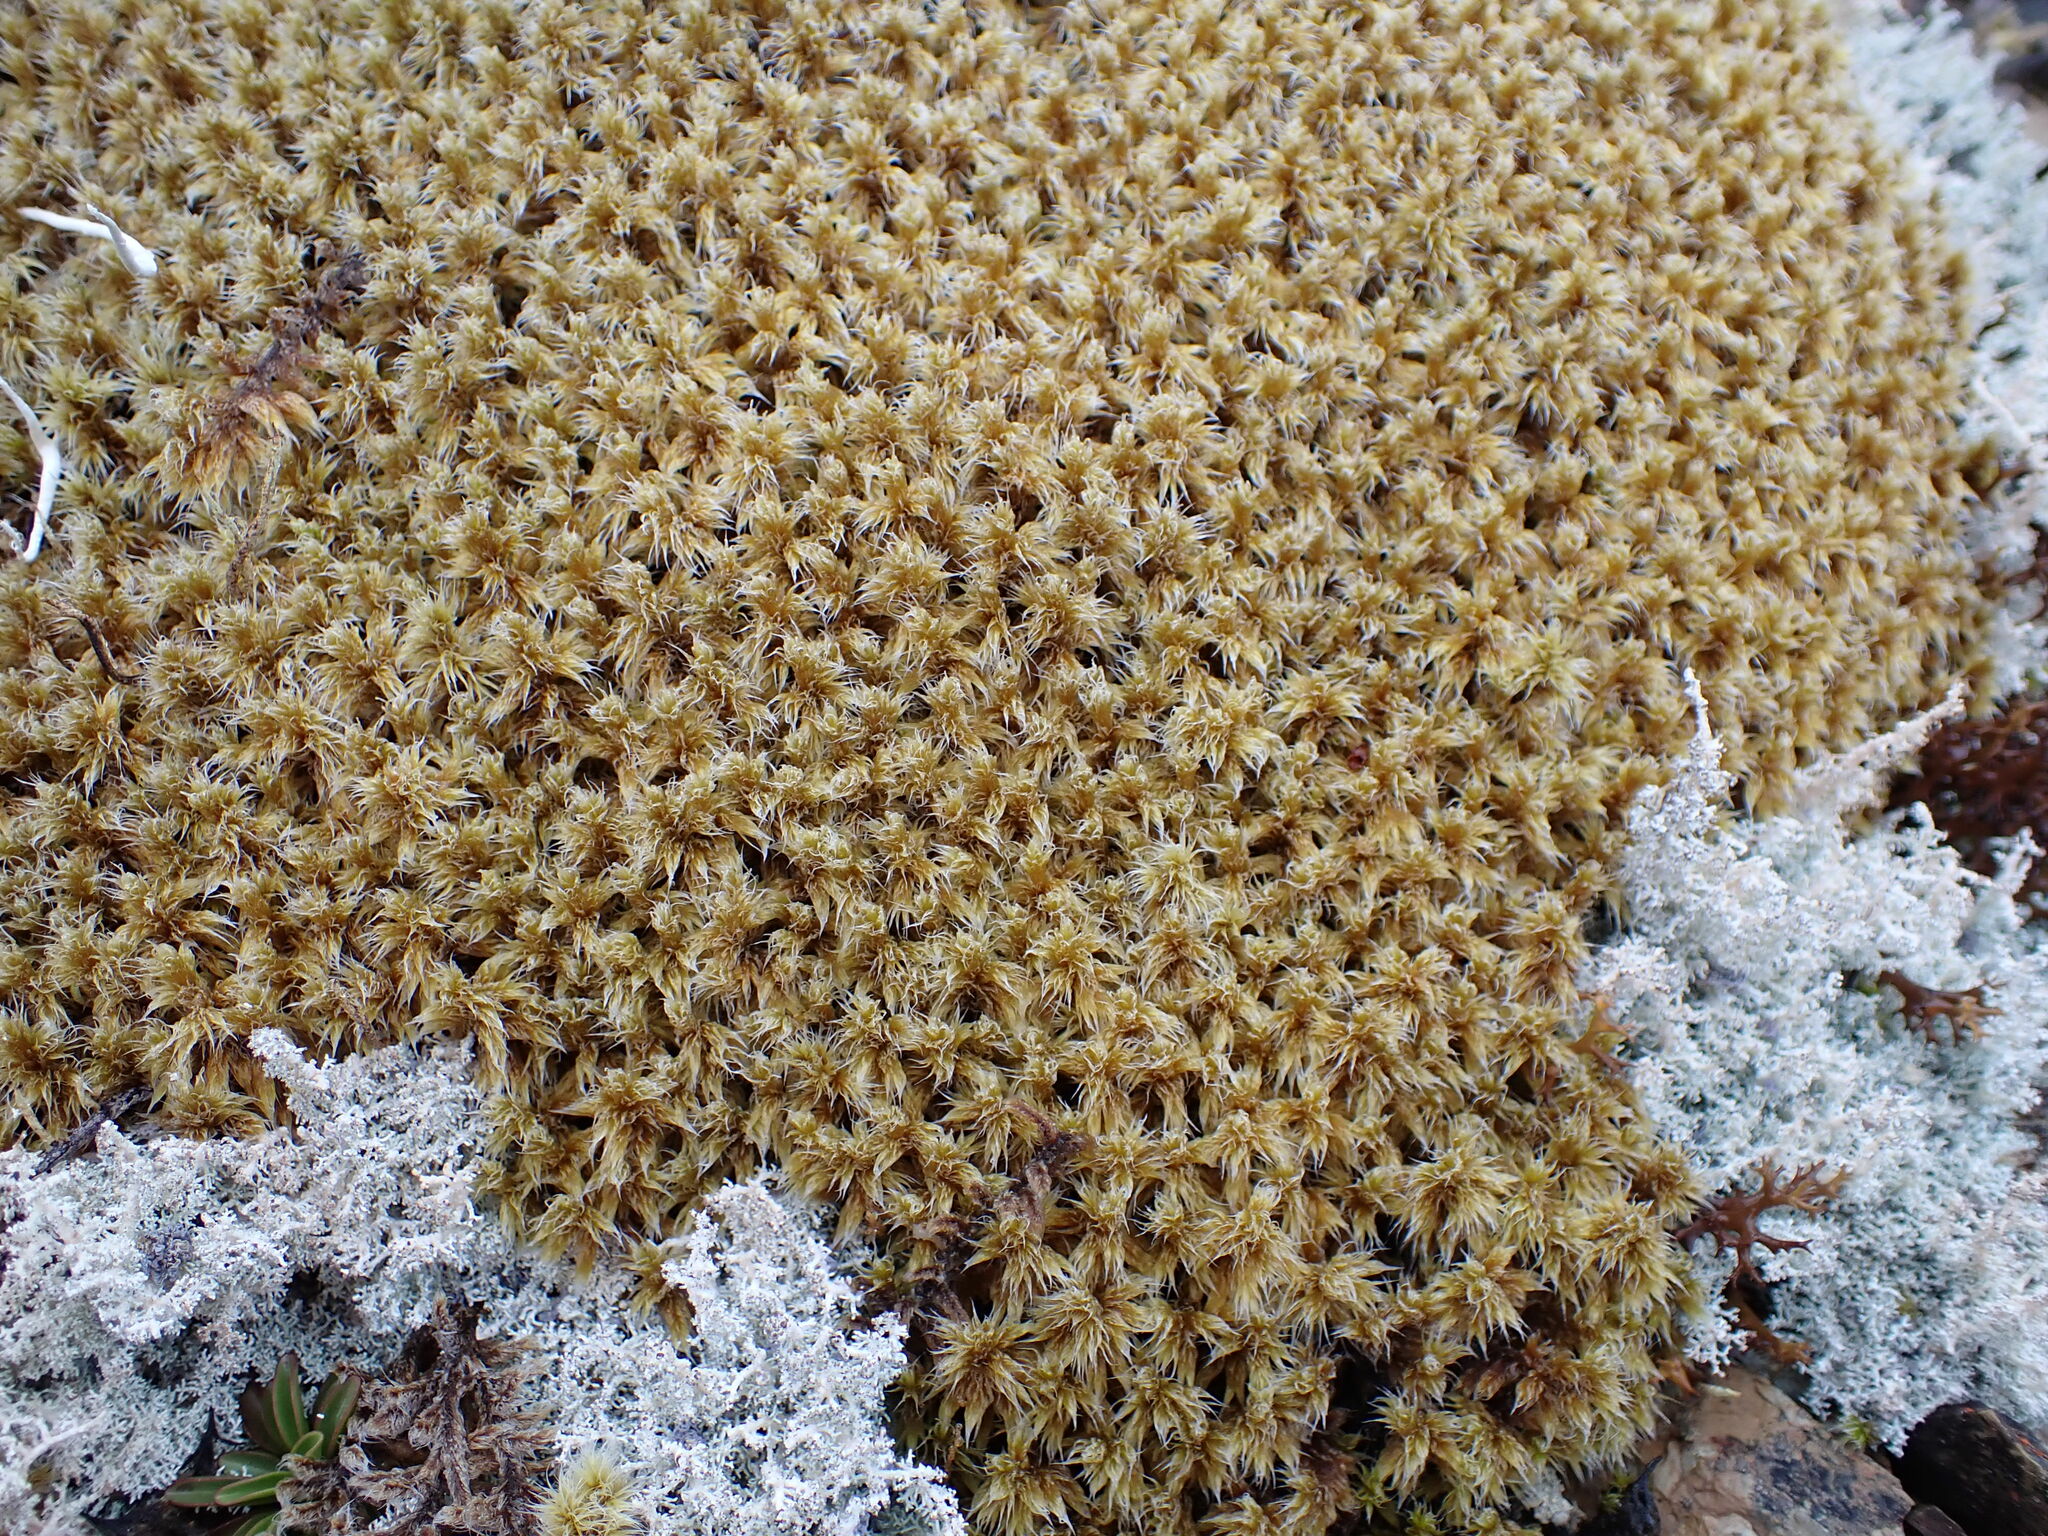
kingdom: Plantae
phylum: Bryophyta
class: Bryopsida
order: Grimmiales
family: Grimmiaceae
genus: Racomitrium
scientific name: Racomitrium lanuginosum
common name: Hoary rock moss
